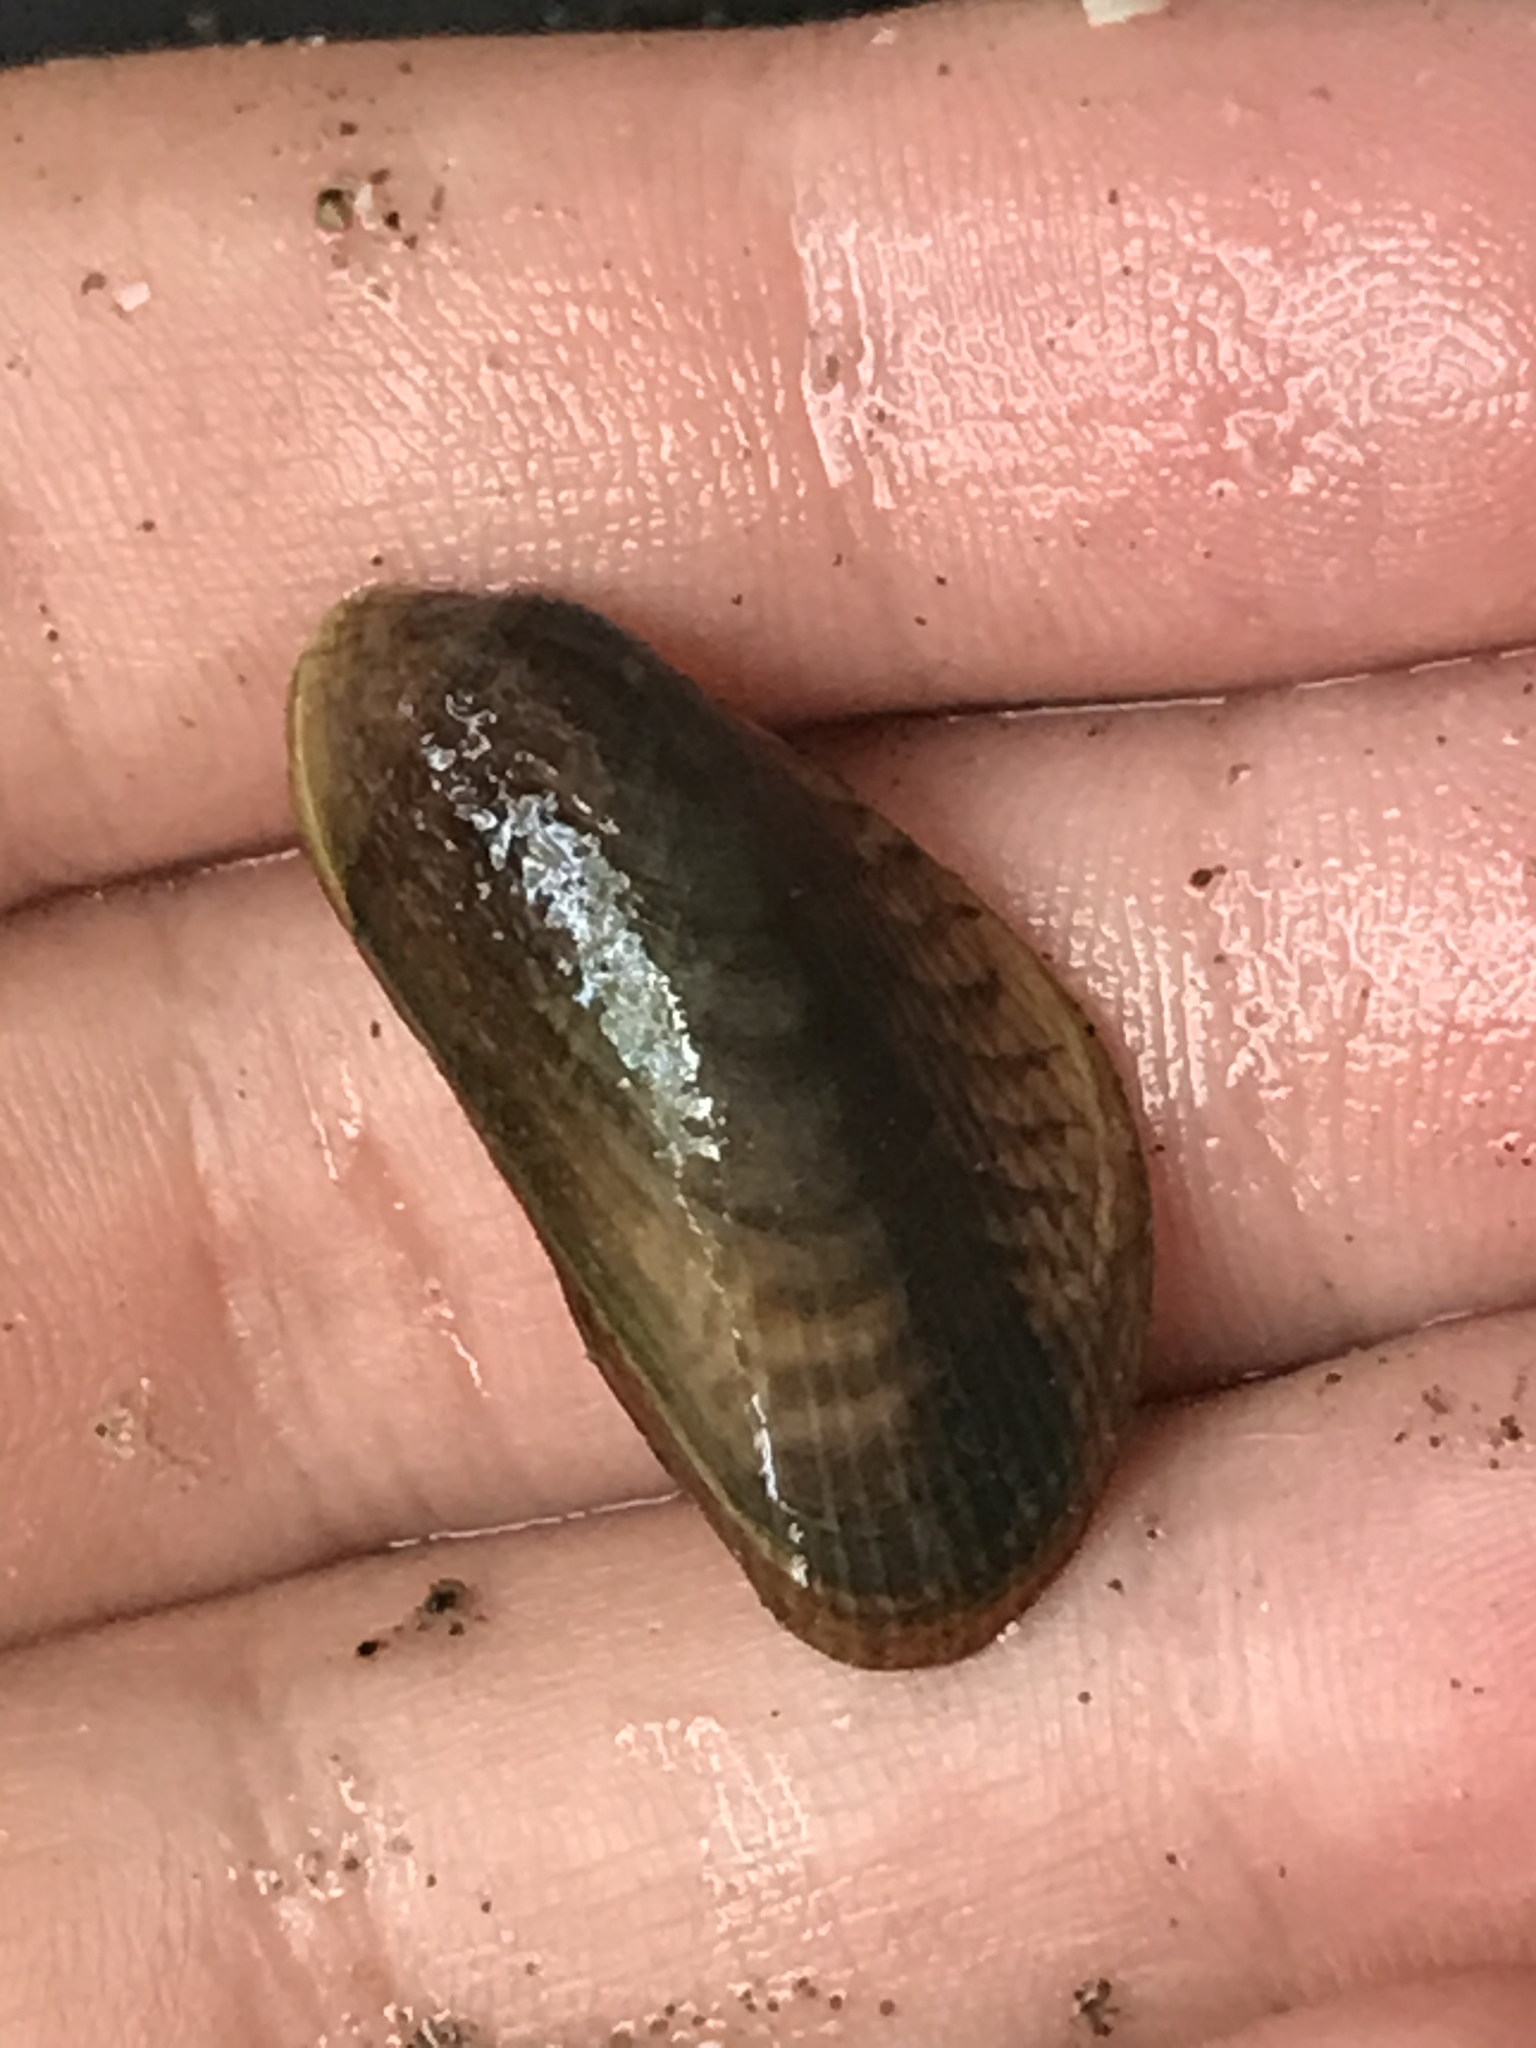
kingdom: Animalia
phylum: Mollusca
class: Bivalvia
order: Mytilida
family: Mytilidae
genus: Arcuatula
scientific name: Arcuatula senhousia
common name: Asian mussel
